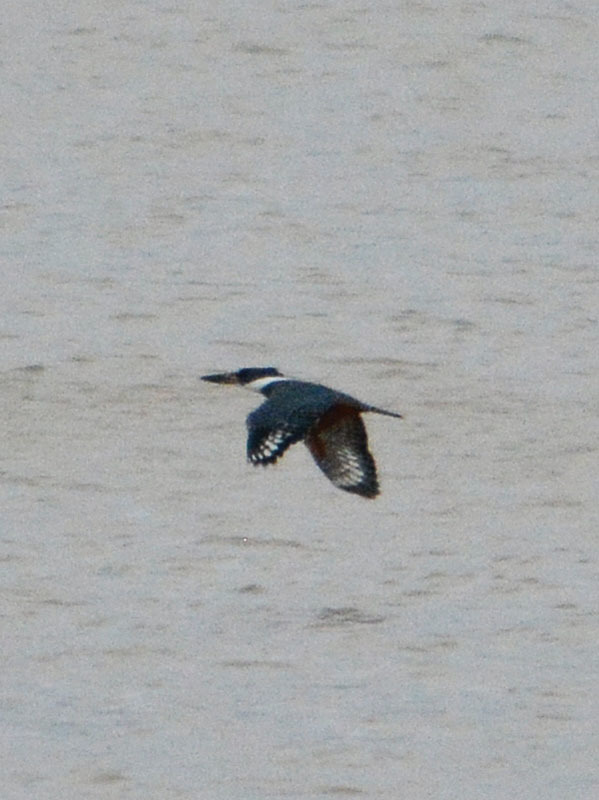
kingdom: Animalia
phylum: Chordata
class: Aves
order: Coraciiformes
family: Alcedinidae
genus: Megaceryle
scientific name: Megaceryle torquata
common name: Ringed kingfisher
